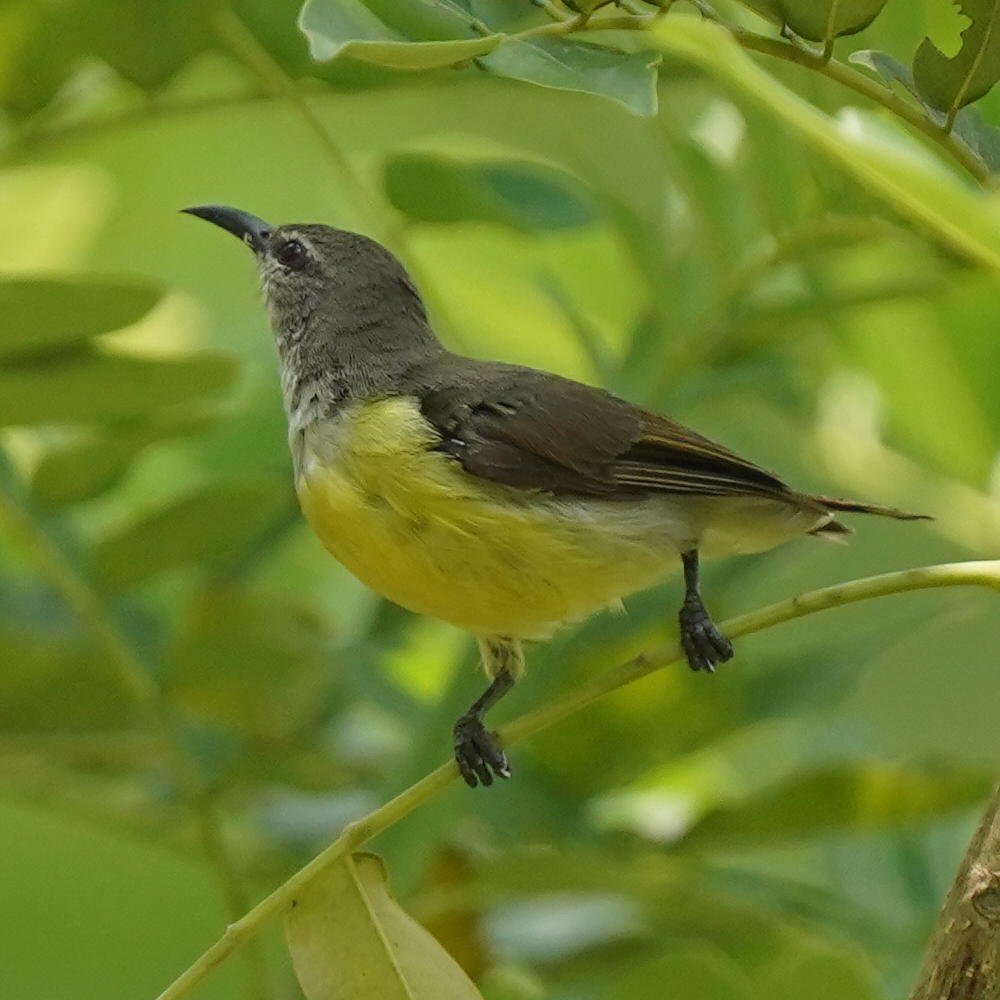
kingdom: Animalia
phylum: Chordata
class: Aves
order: Passeriformes
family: Nectariniidae
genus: Leptocoma
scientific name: Leptocoma zeylonica
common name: Purple-rumped sunbird
